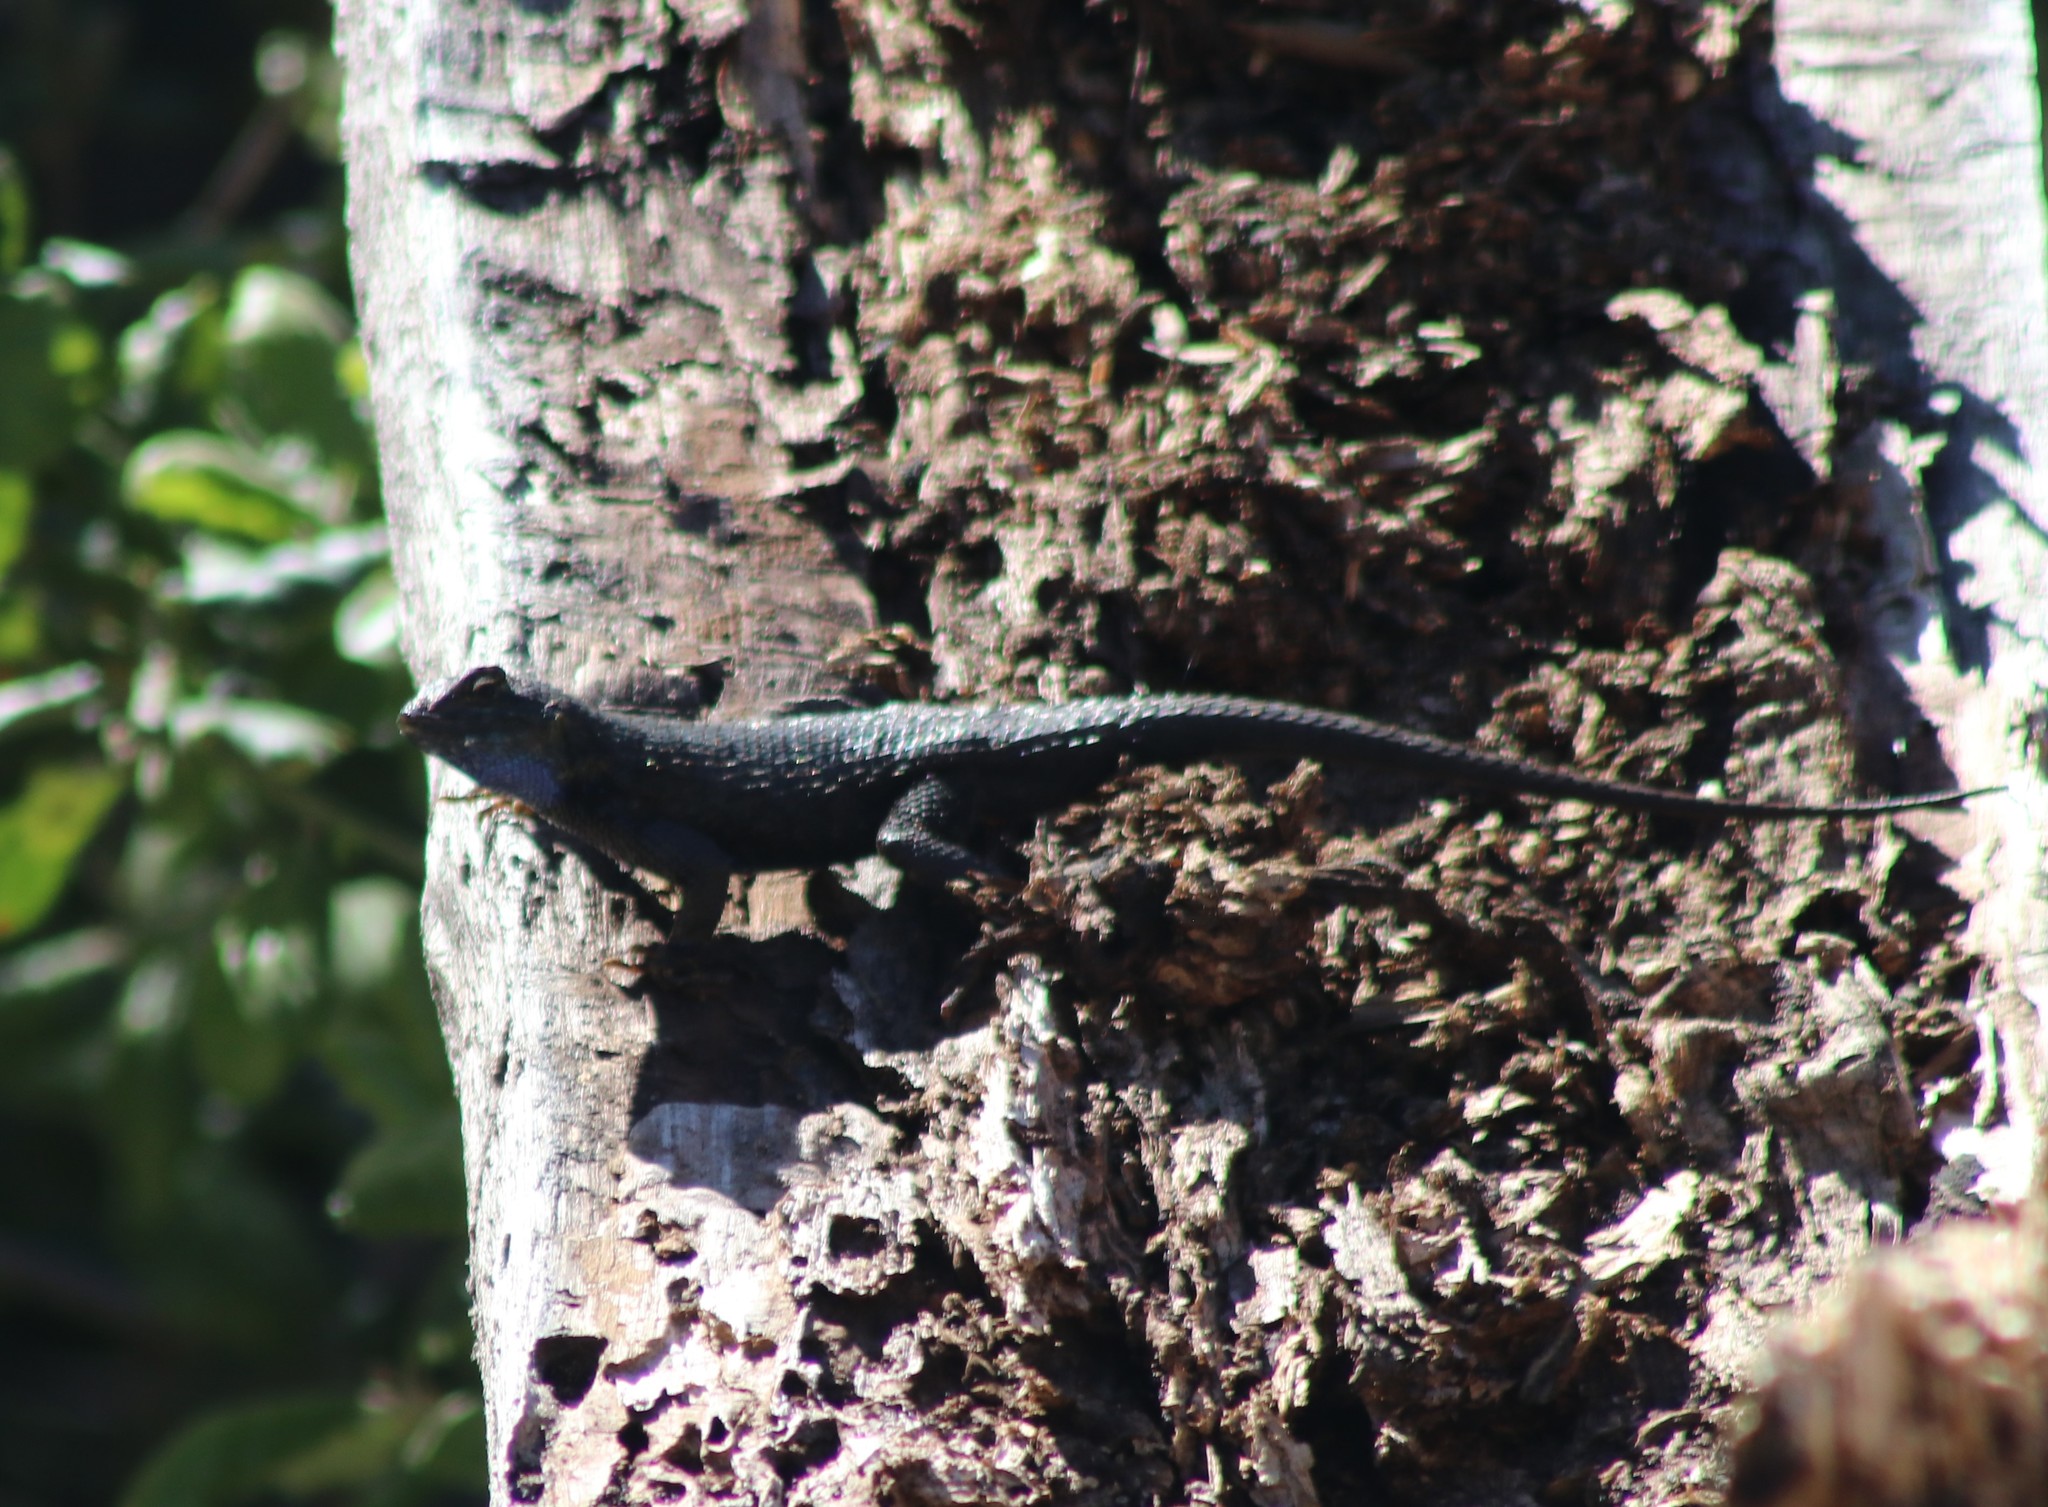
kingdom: Animalia
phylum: Chordata
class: Squamata
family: Phrynosomatidae
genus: Sceloporus
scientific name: Sceloporus occidentalis
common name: Western fence lizard
